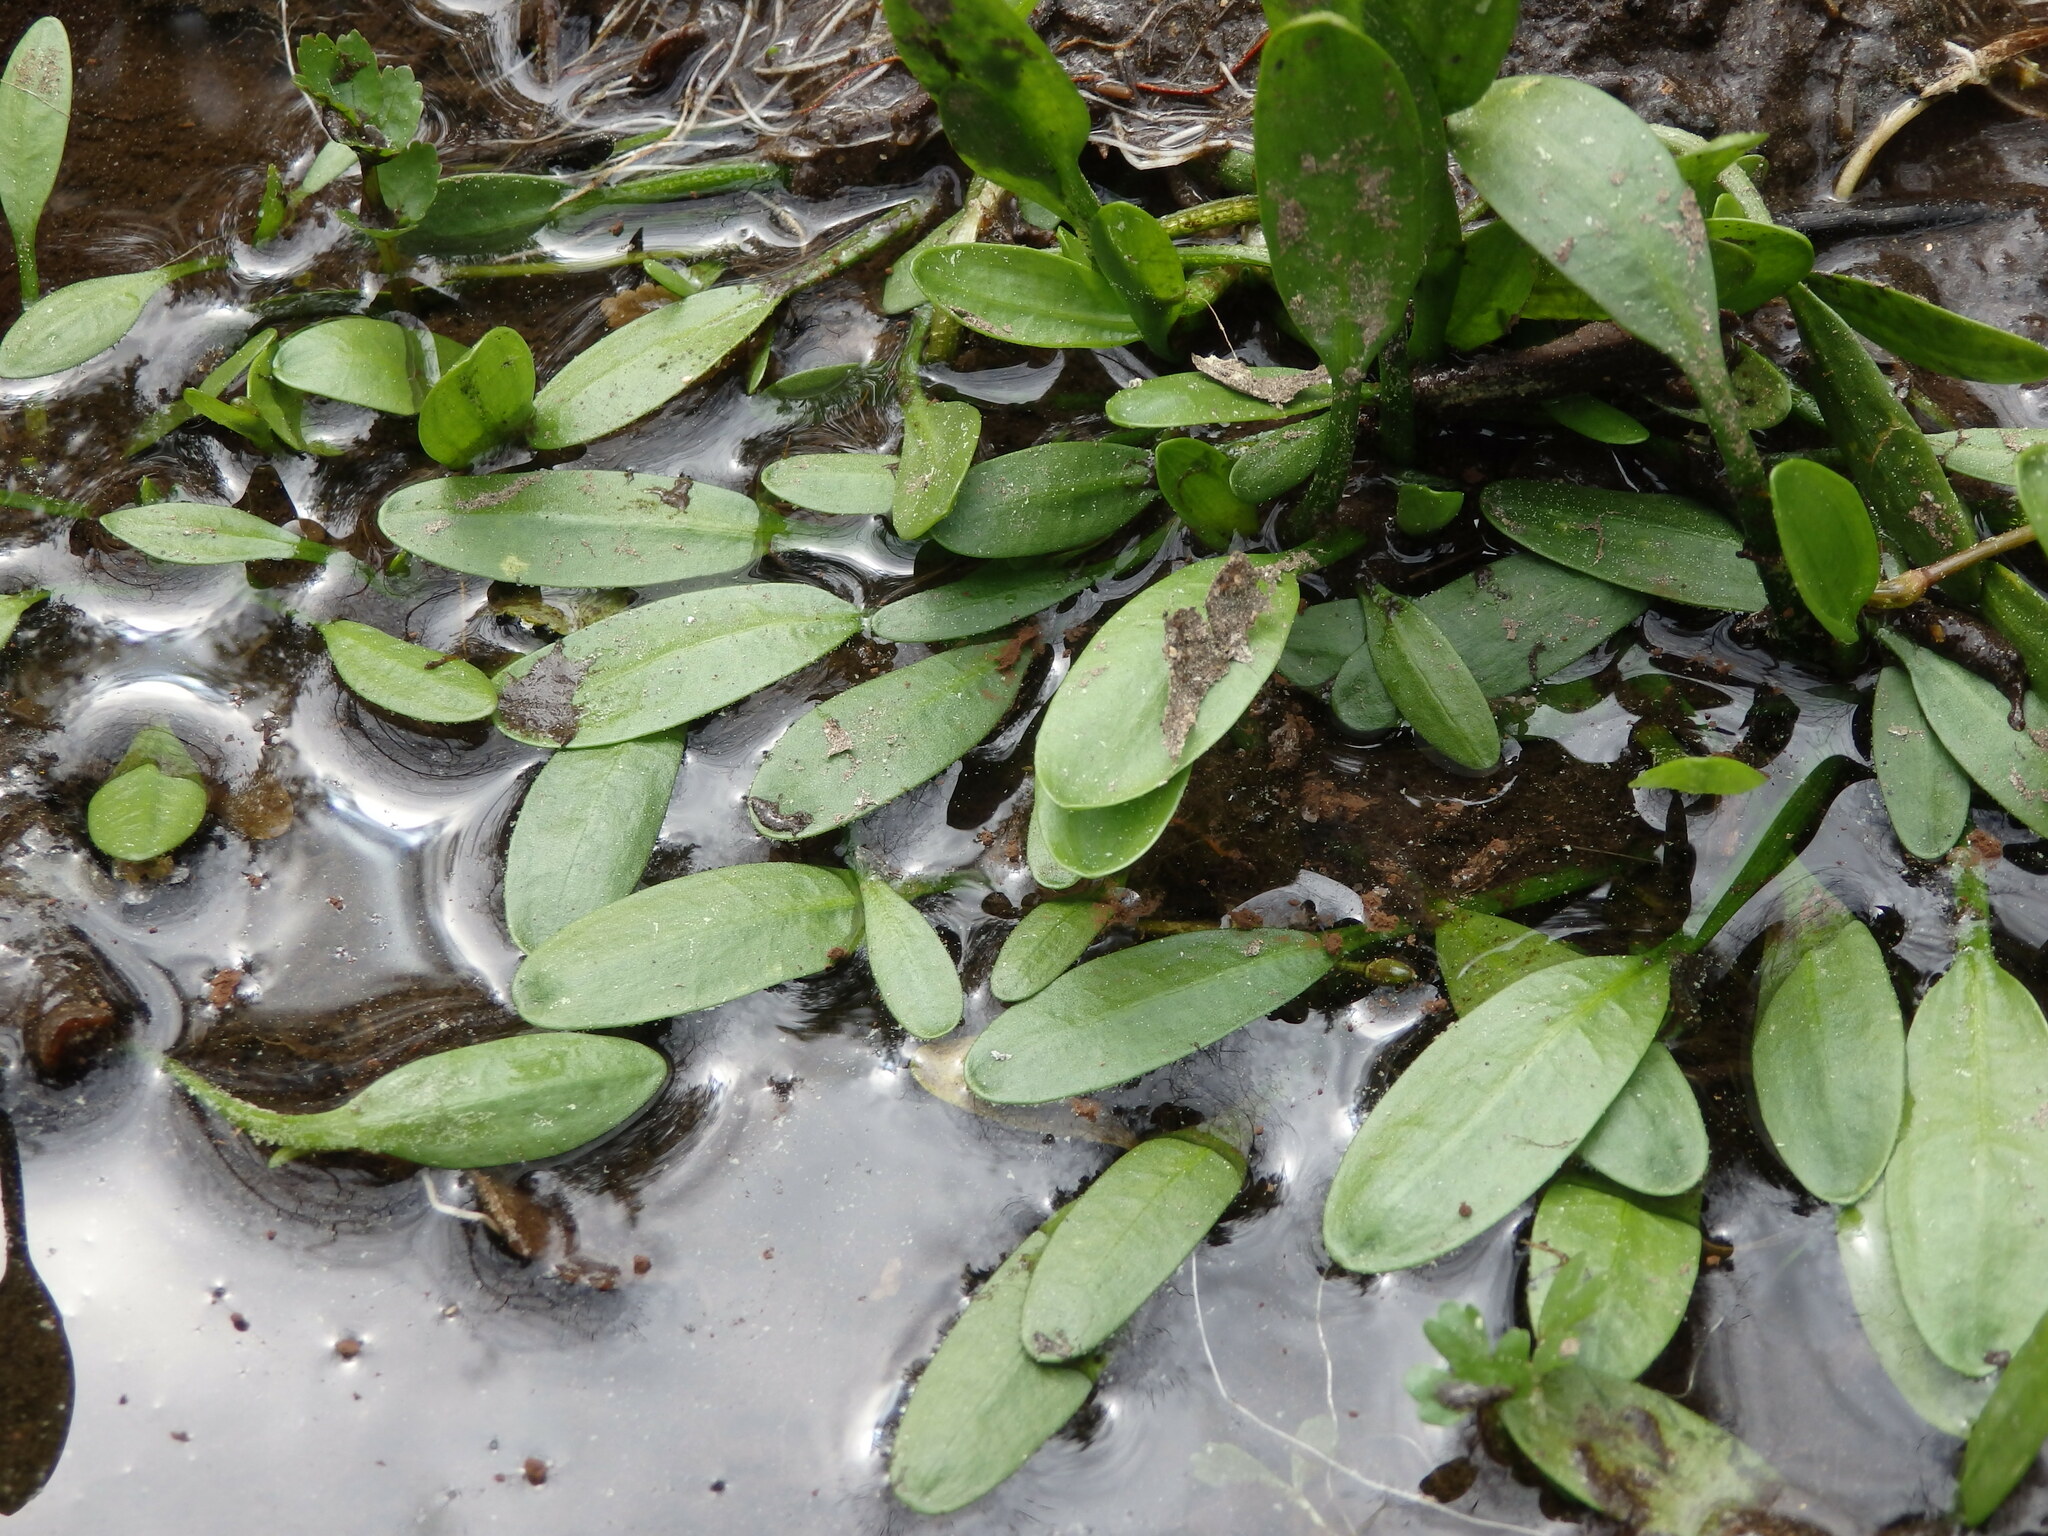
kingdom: Plantae
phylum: Tracheophyta
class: Liliopsida
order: Alismatales
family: Alismataceae
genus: Baldellia
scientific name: Baldellia alpestris
